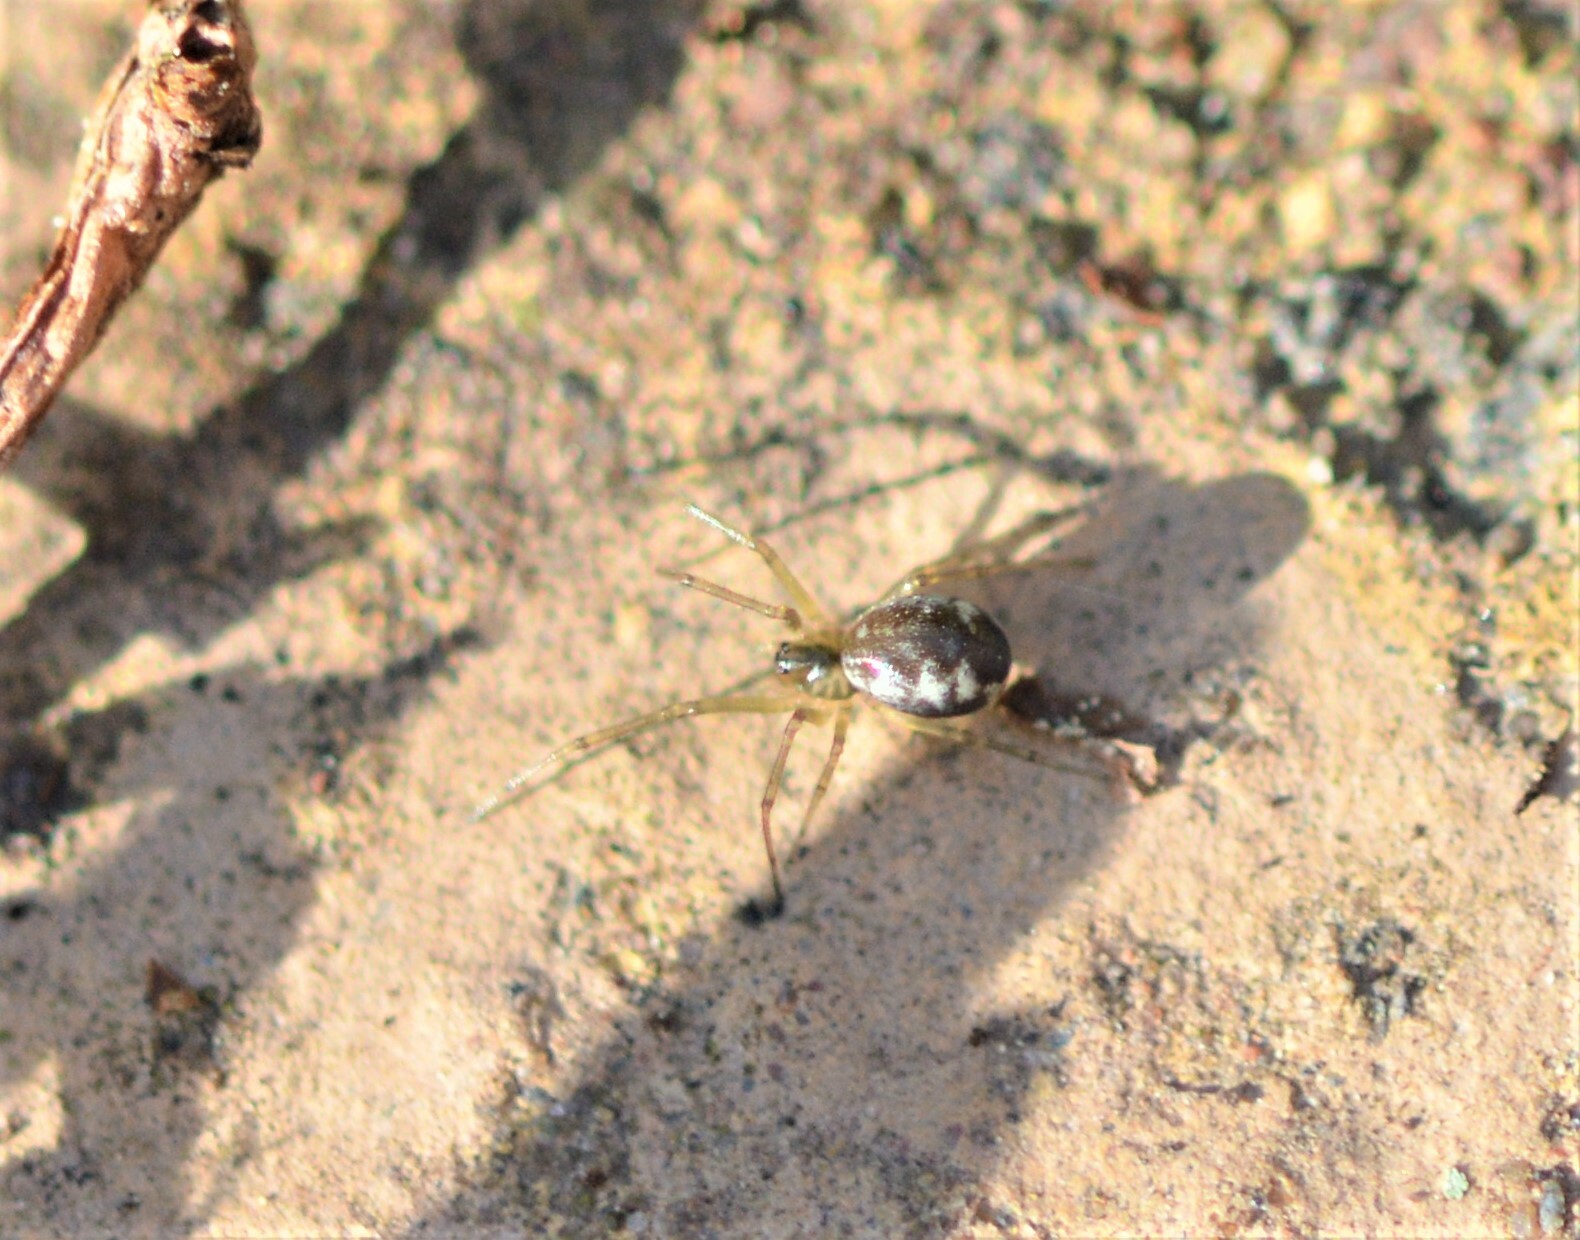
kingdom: Animalia
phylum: Arthropoda
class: Arachnida
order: Araneae
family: Linyphiidae
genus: Neriene
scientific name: Neriene peltata
